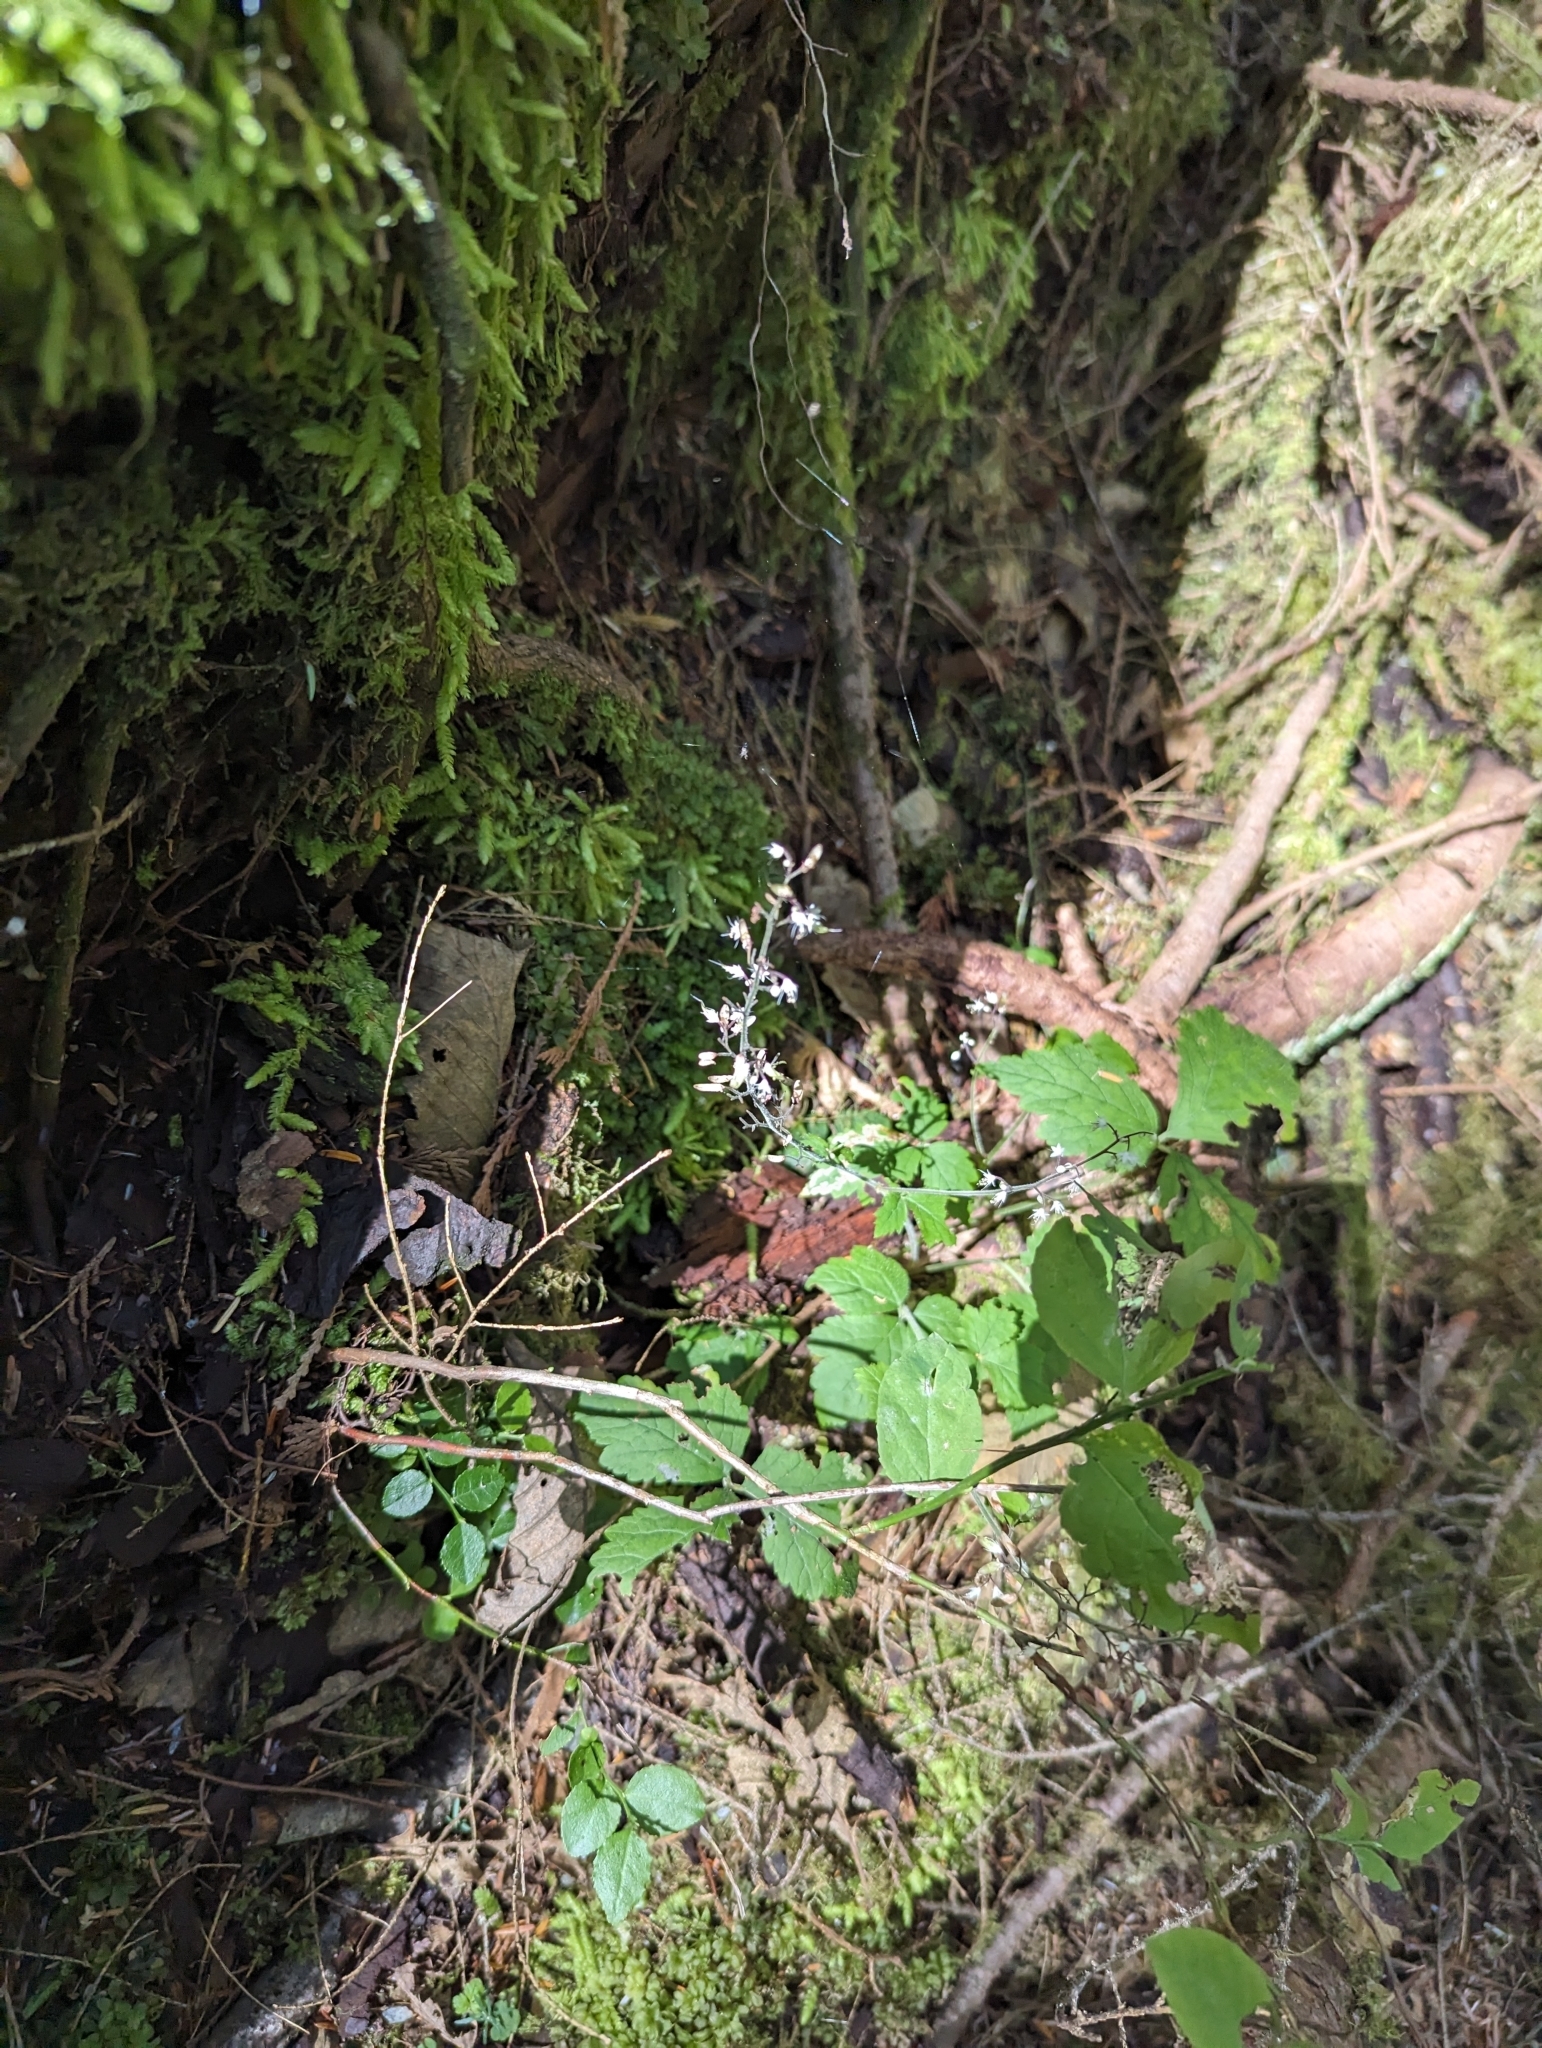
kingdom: Plantae
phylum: Tracheophyta
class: Magnoliopsida
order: Saxifragales
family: Saxifragaceae
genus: Tiarella
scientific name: Tiarella trifoliata
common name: Sugar-scoop
